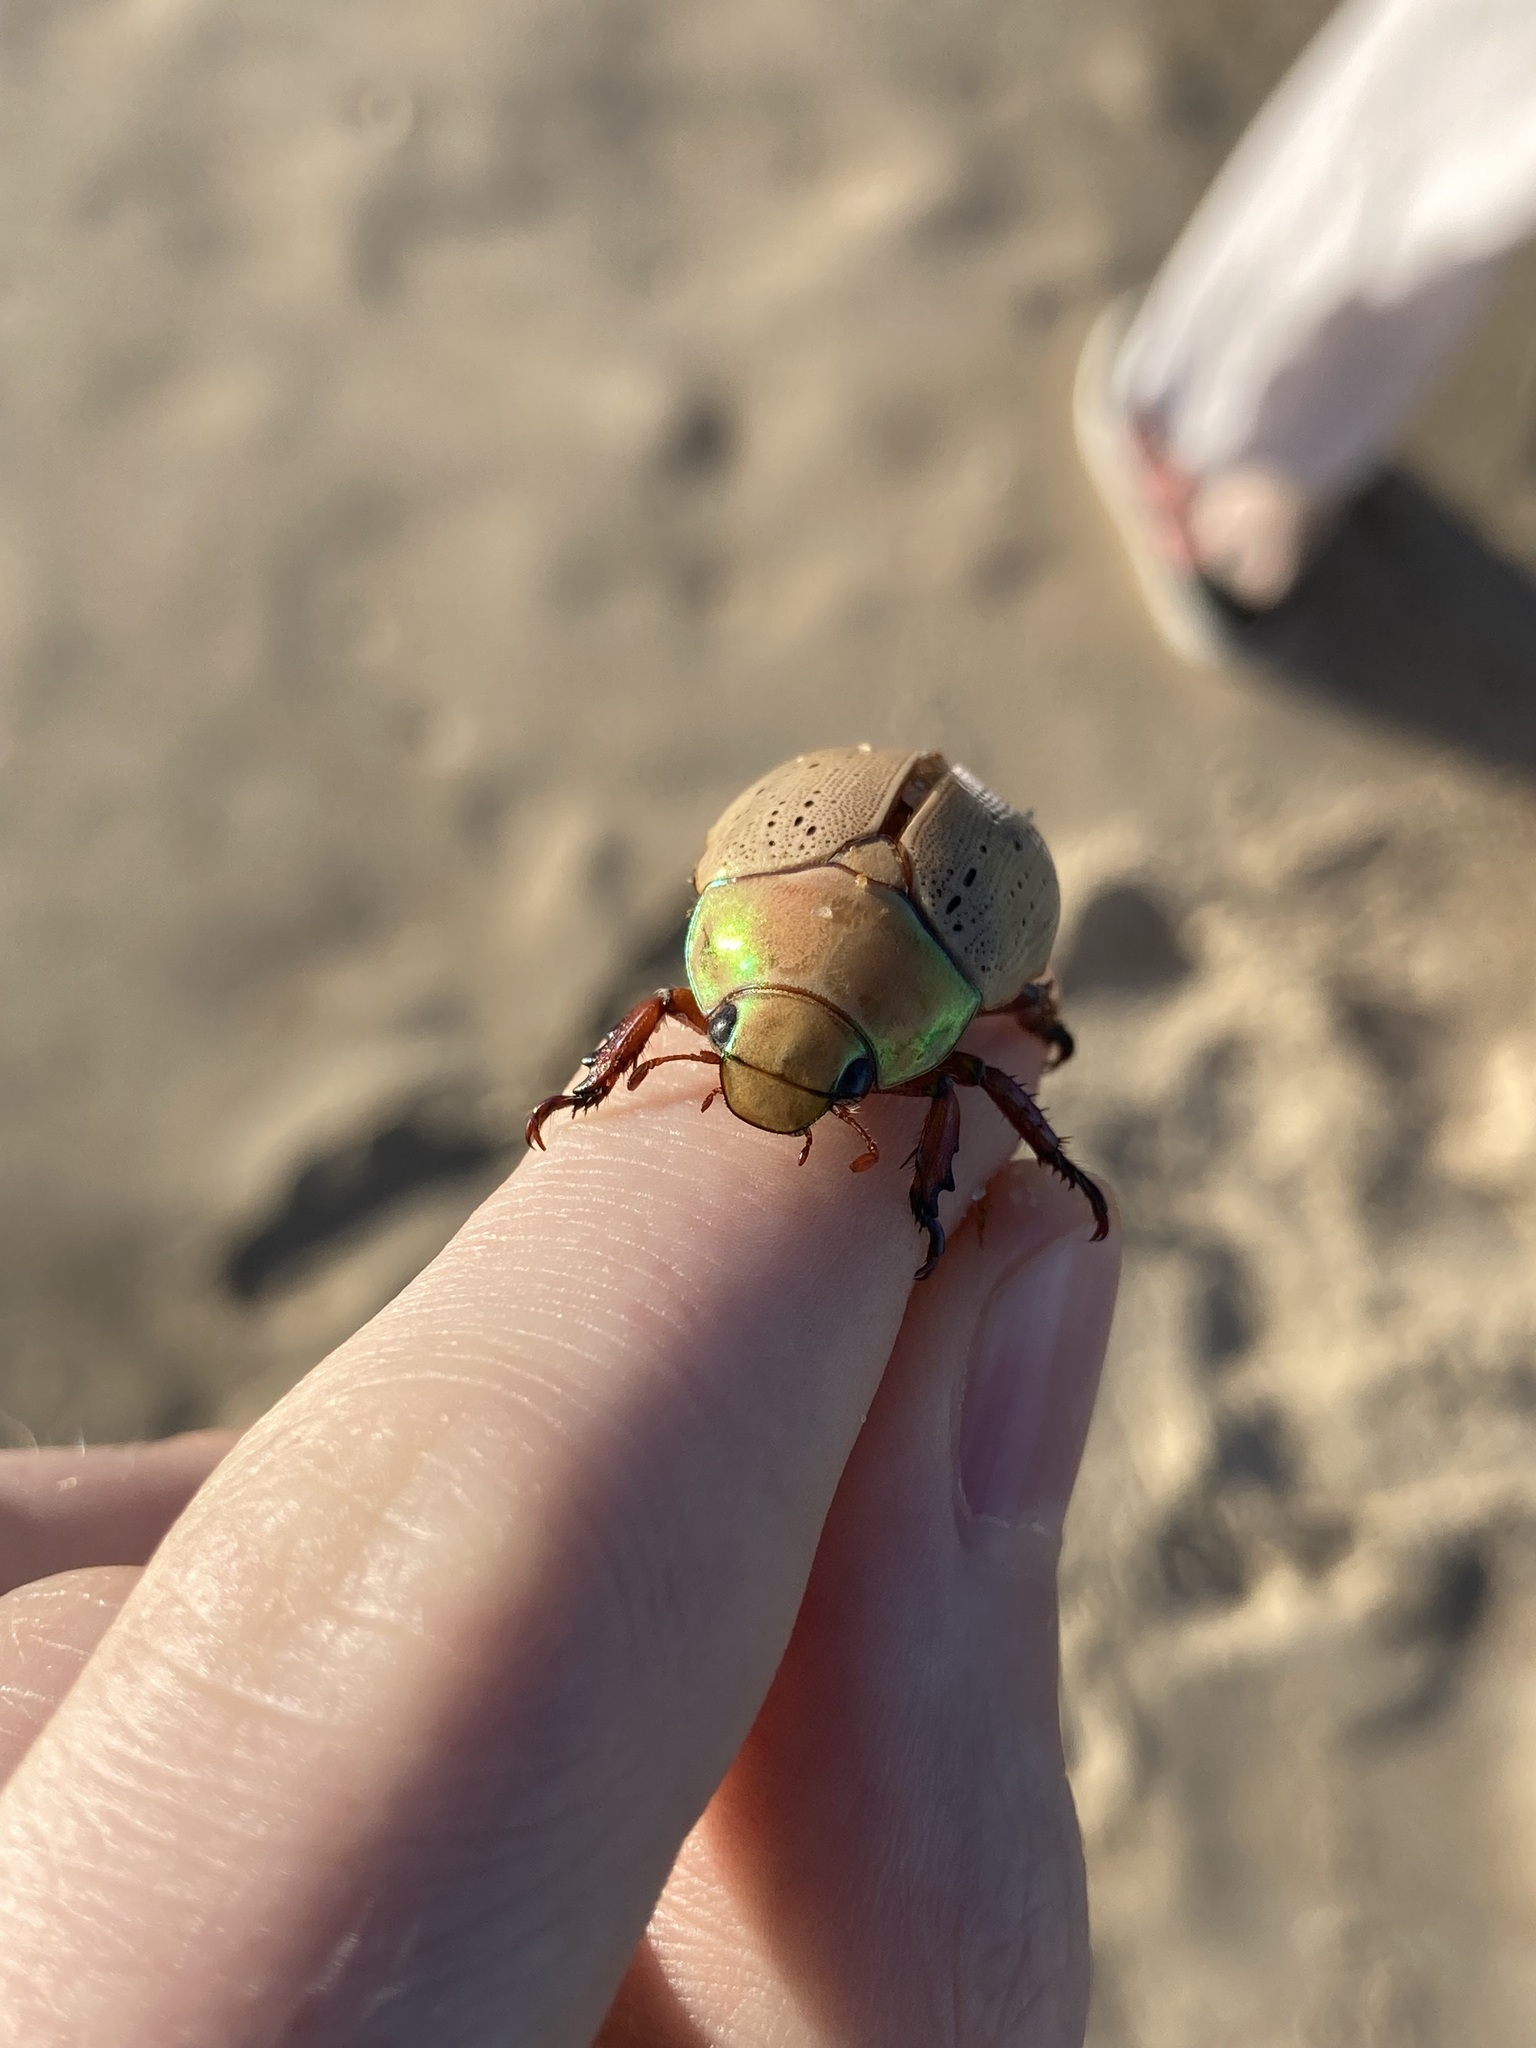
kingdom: Animalia
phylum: Arthropoda
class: Insecta
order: Coleoptera
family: Scarabaeidae
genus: Anoplognathus
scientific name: Anoplognathus porosus
